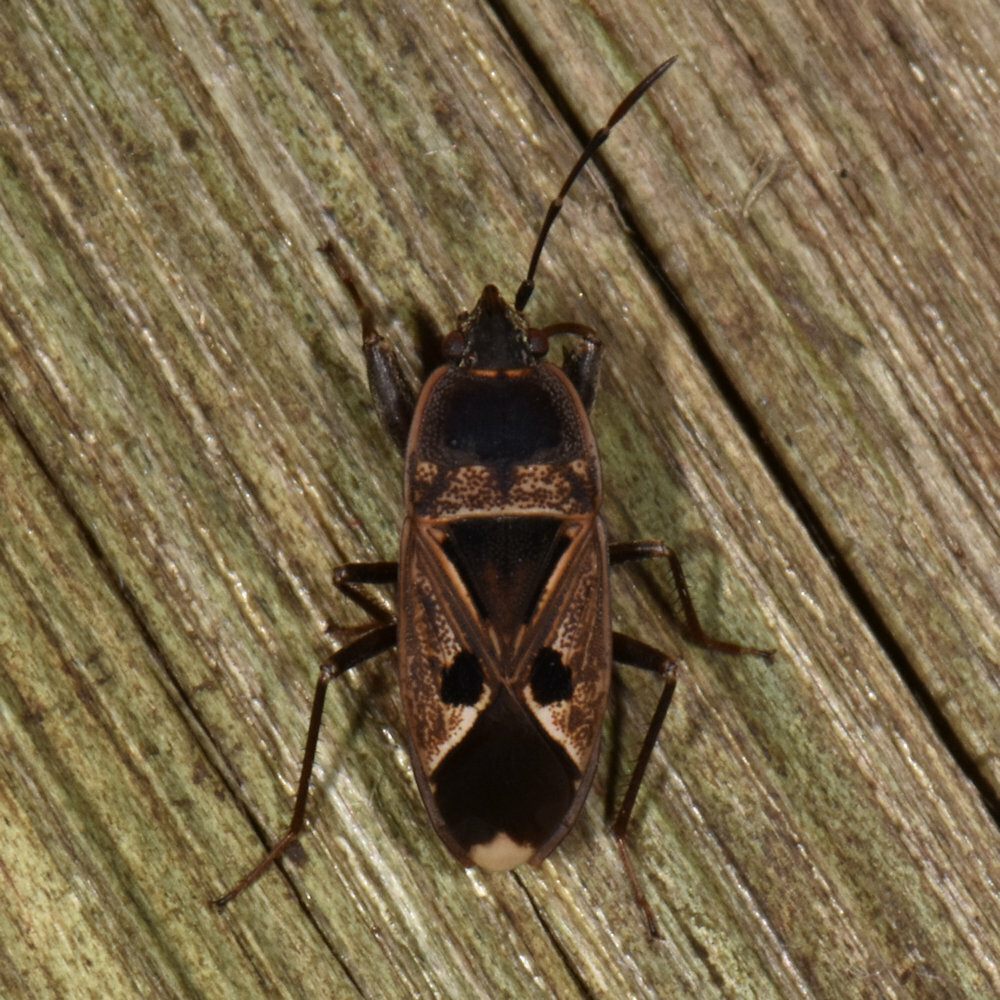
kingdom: Animalia
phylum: Arthropoda
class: Insecta
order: Hemiptera
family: Rhyparochromidae
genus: Naphius
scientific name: Naphius apicalis
